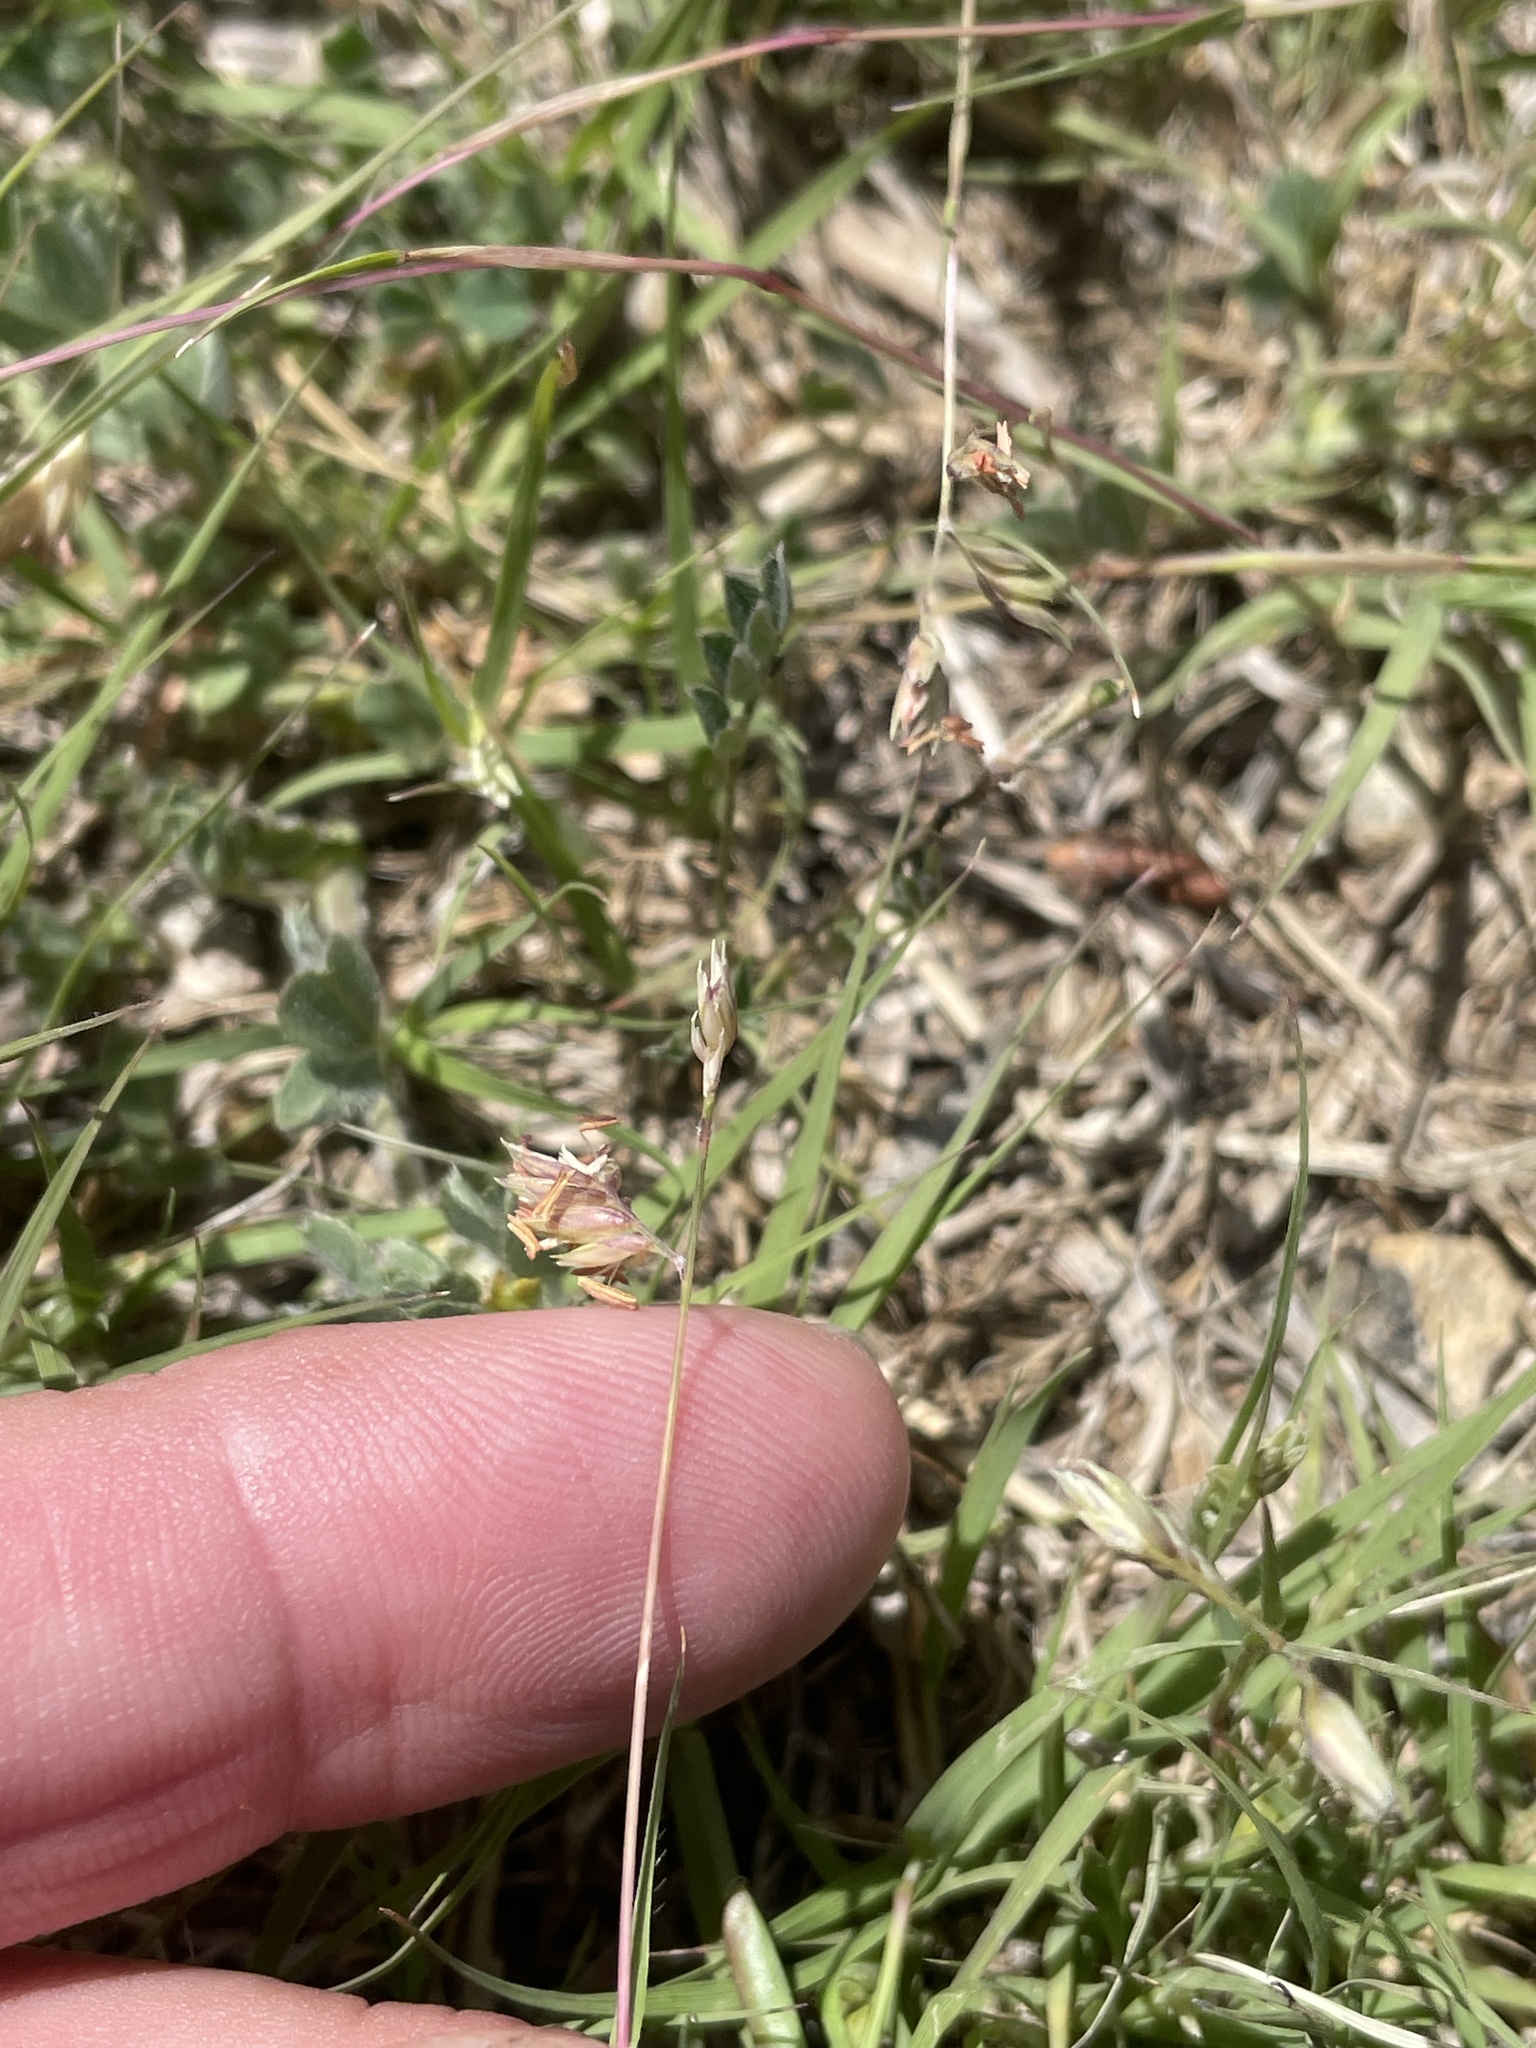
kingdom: Plantae
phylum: Tracheophyta
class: Liliopsida
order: Poales
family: Poaceae
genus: Bouteloua
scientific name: Bouteloua dactyloides
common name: Buffalo grass
